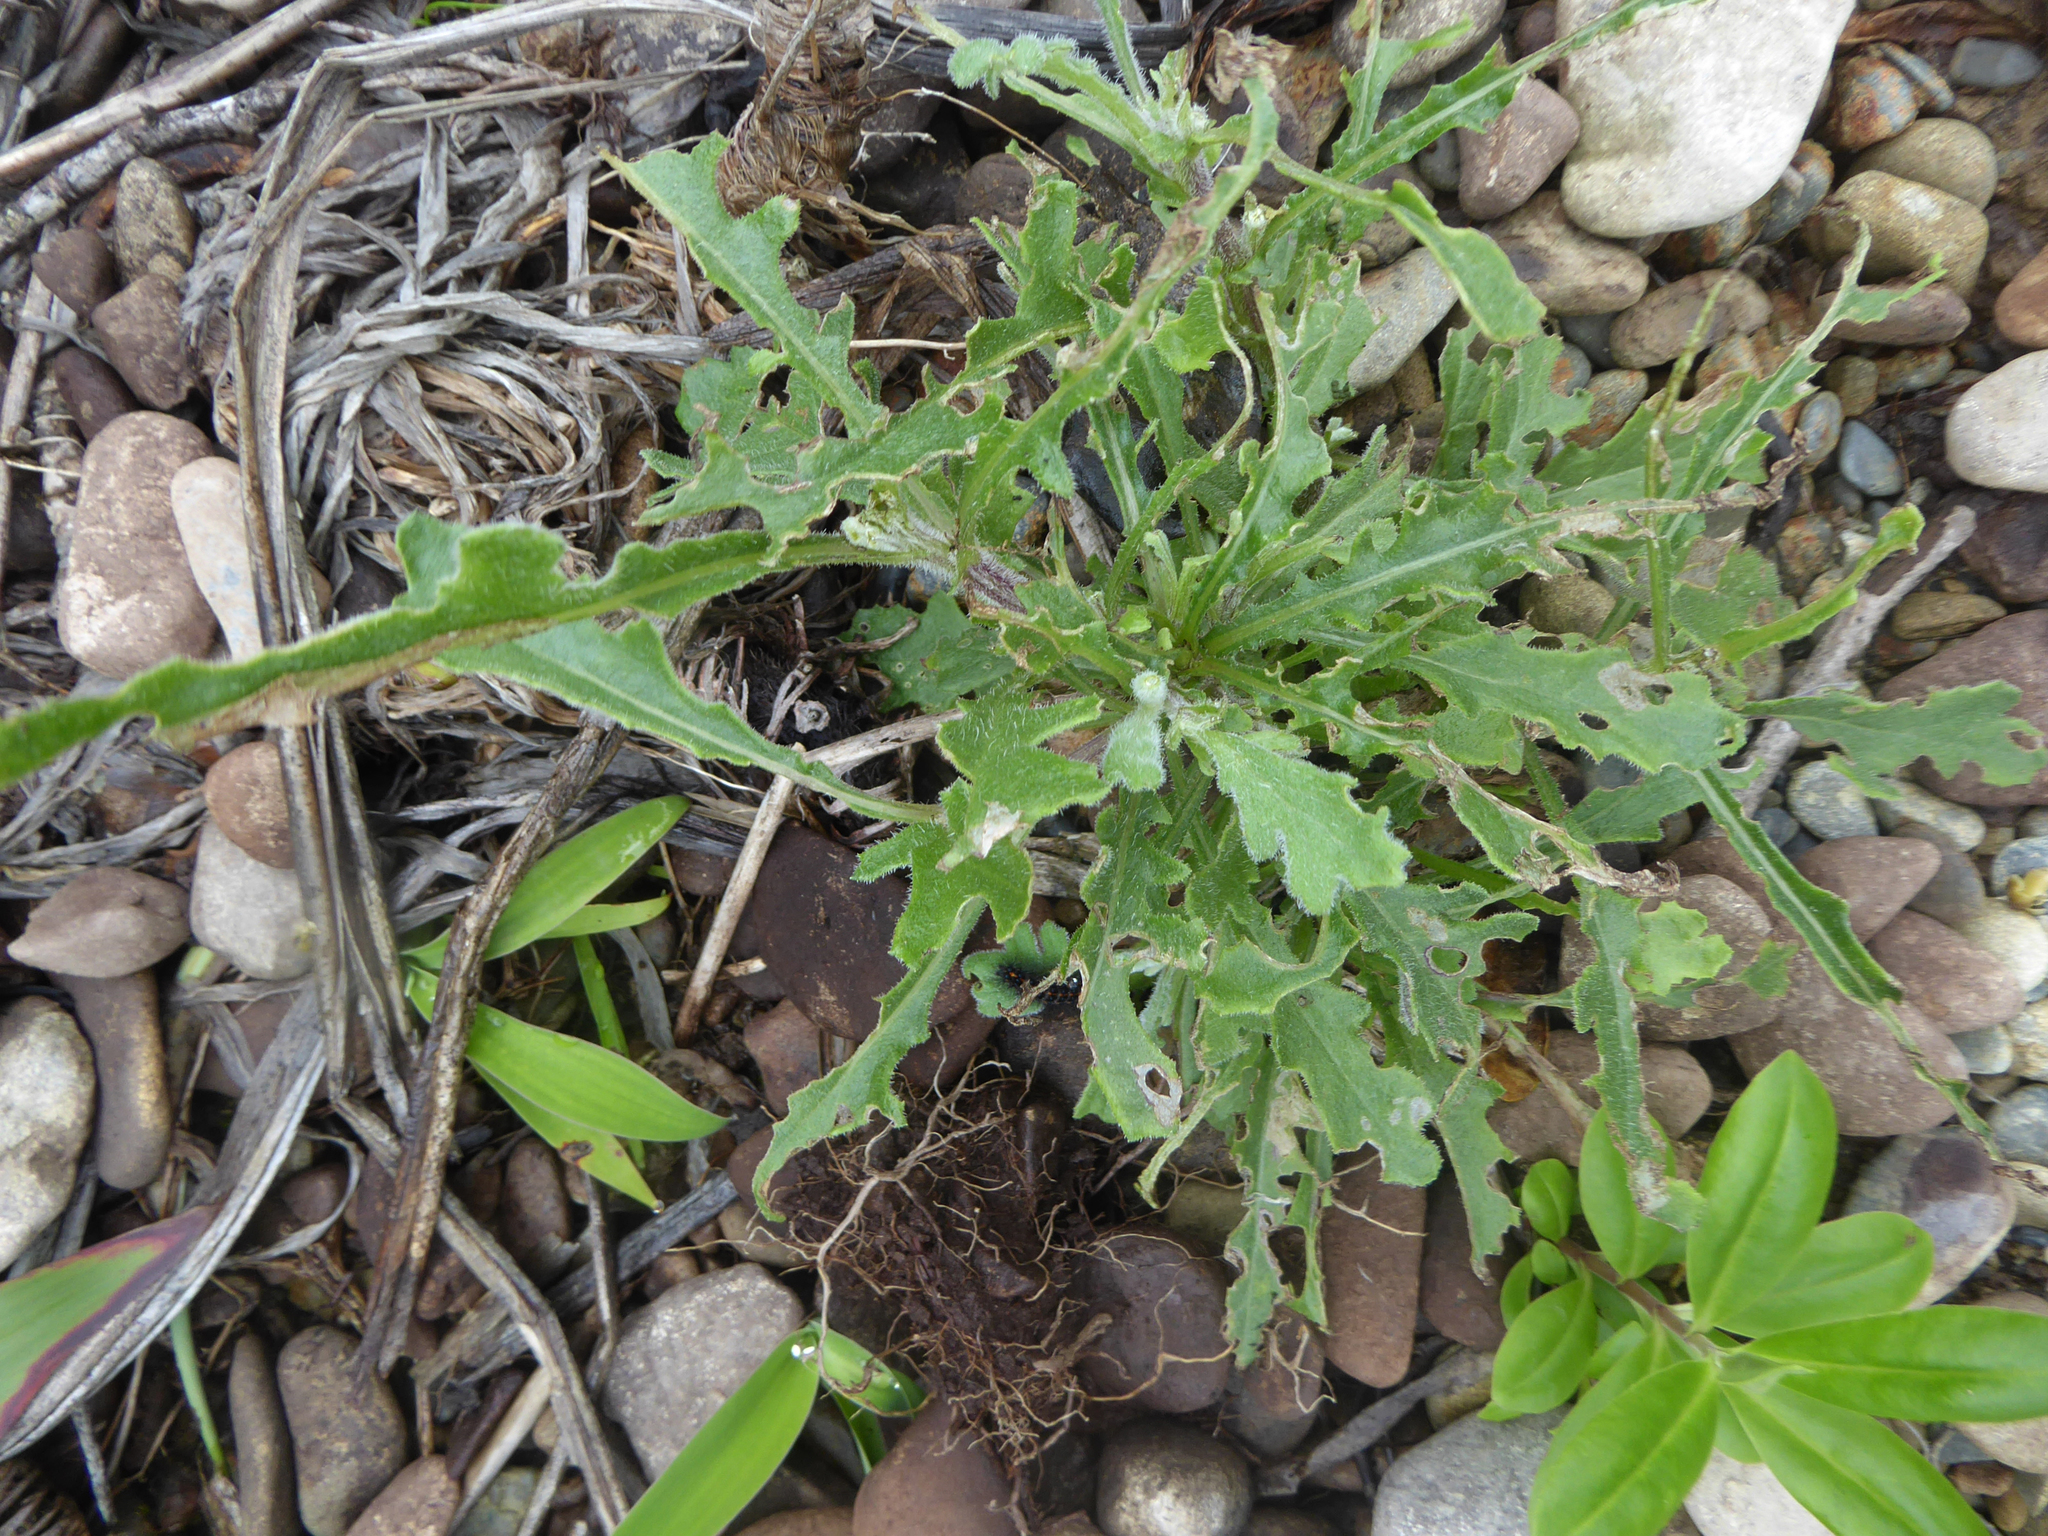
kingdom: Plantae
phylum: Tracheophyta
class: Magnoliopsida
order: Asterales
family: Asteraceae
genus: Senecio
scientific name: Senecio glomeratus
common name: Cutleaf burnweed
